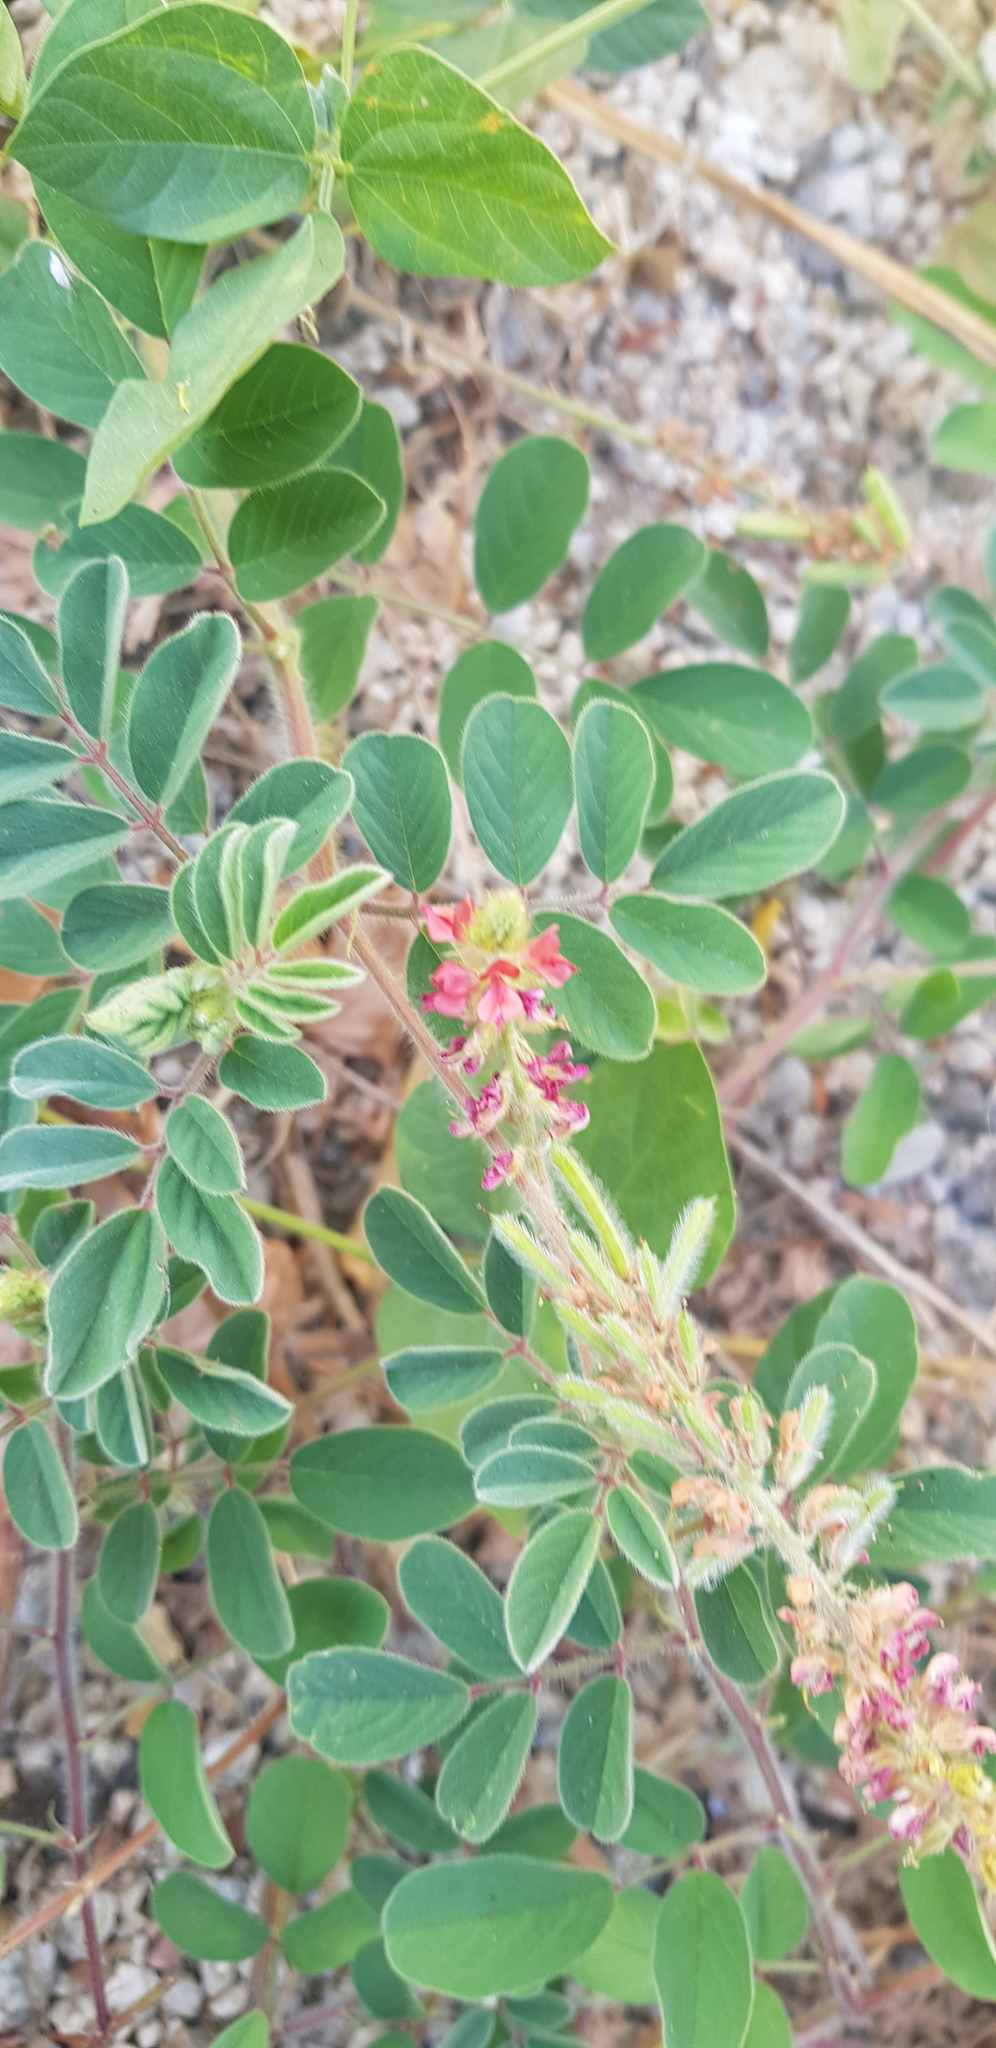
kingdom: Plantae
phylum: Tracheophyta
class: Magnoliopsida
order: Fabales
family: Fabaceae
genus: Indigofera
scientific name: Indigofera hirsuta
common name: Hairy indigo
